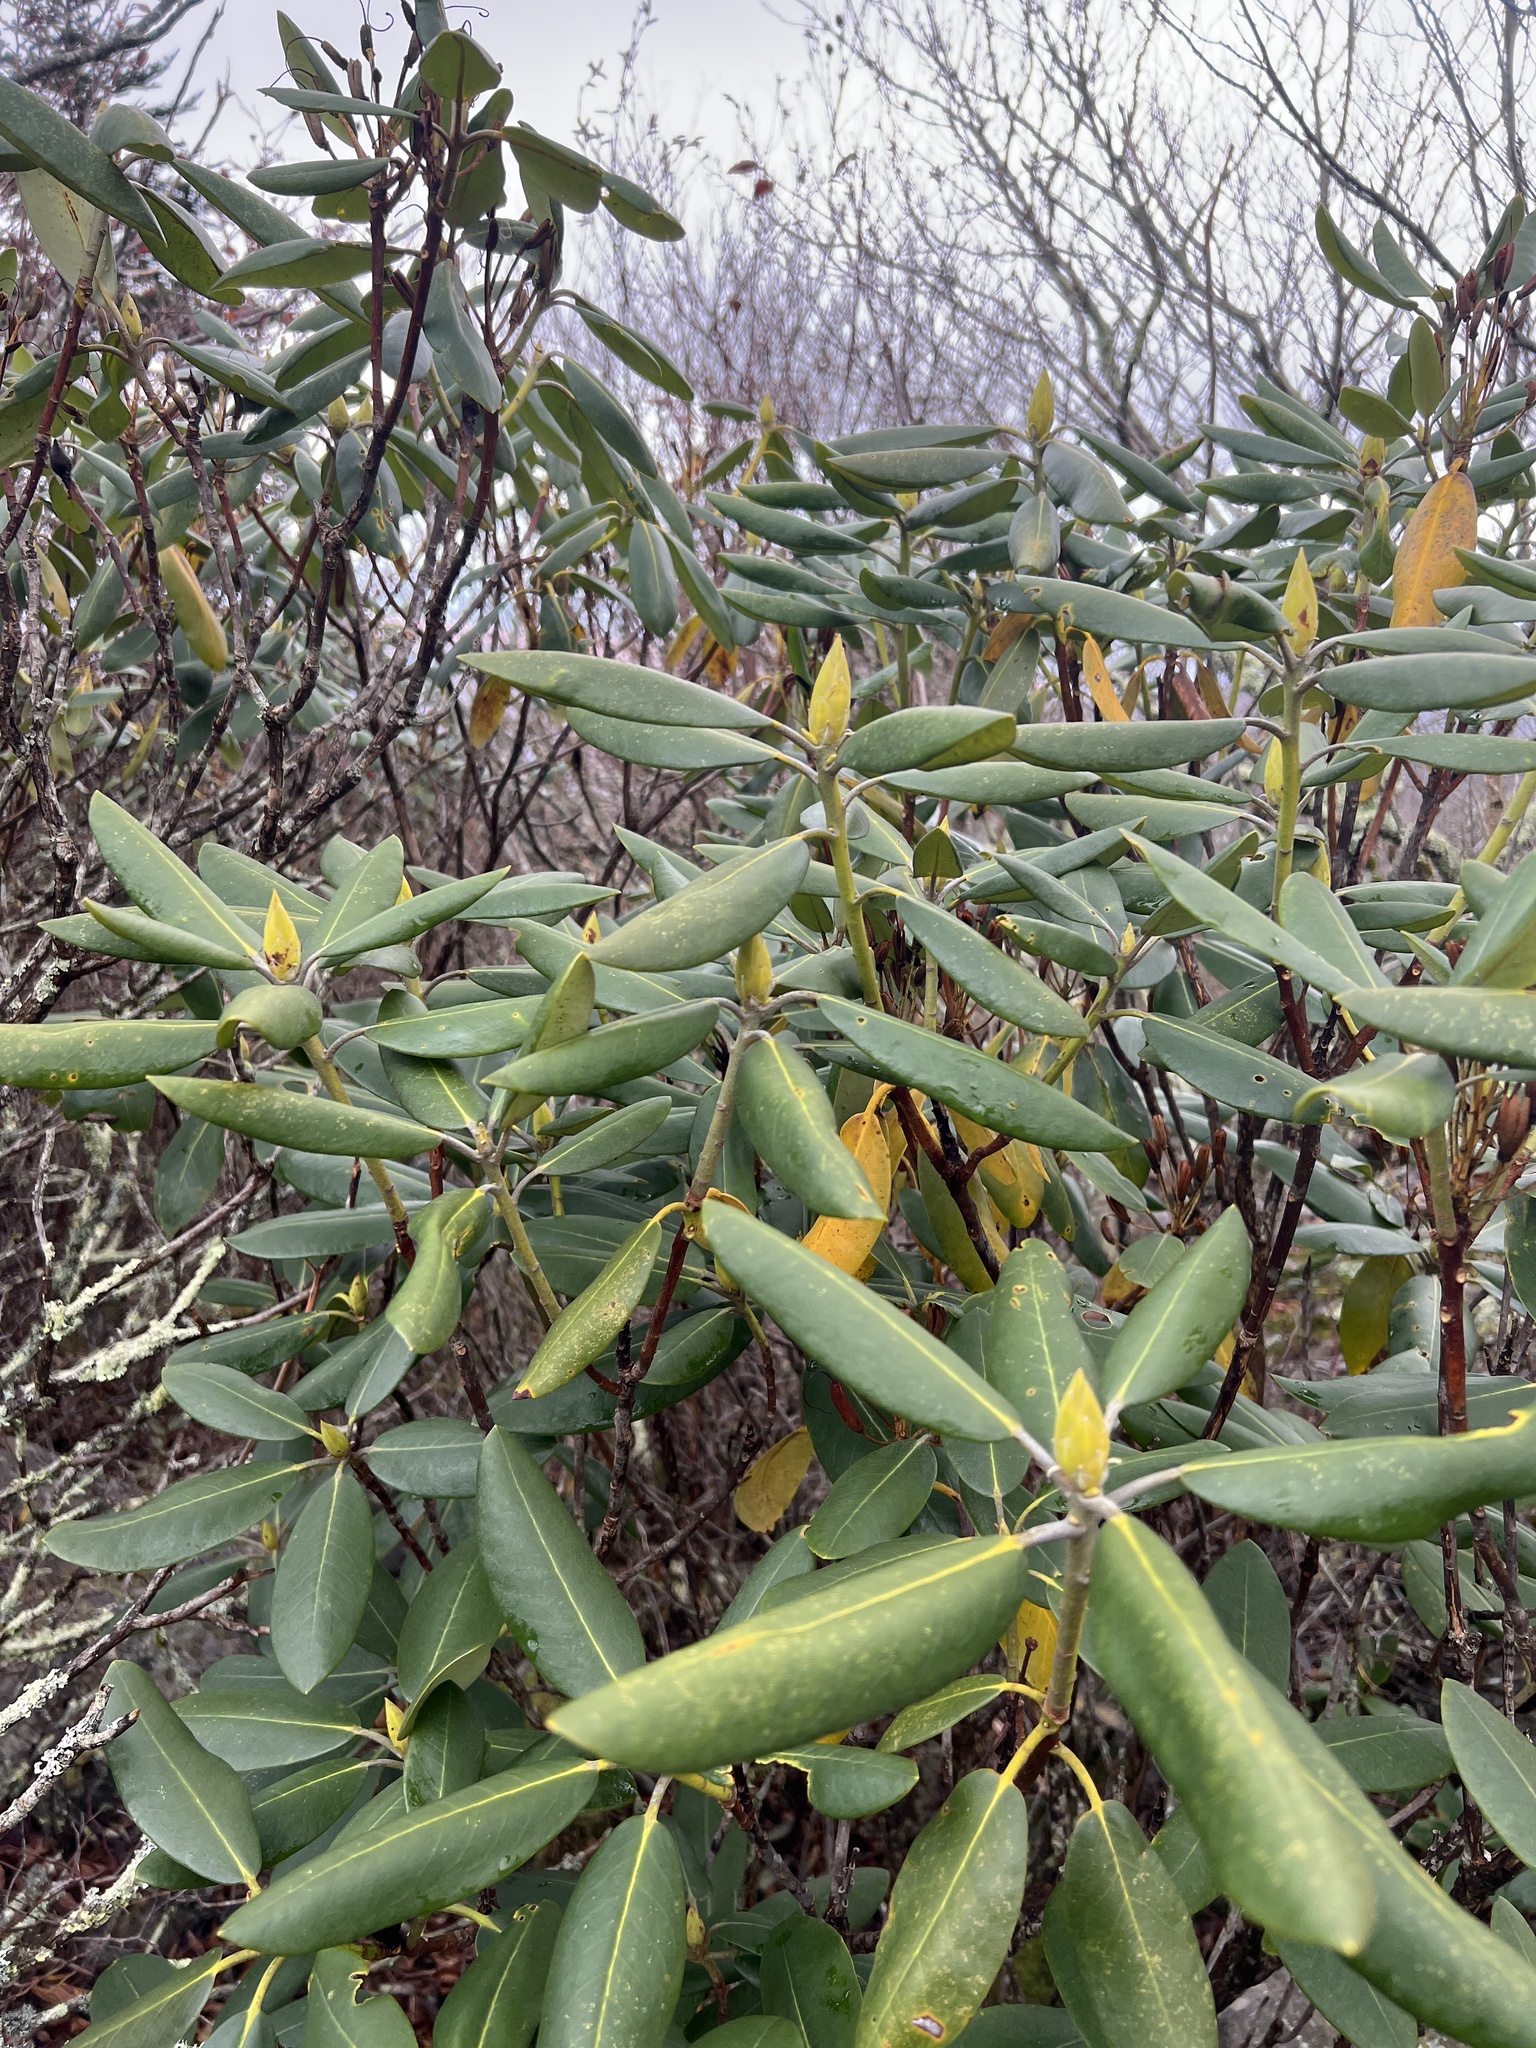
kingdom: Plantae
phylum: Tracheophyta
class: Magnoliopsida
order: Ericales
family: Ericaceae
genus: Rhododendron
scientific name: Rhododendron catawbiense
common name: Catawba rhododendron
